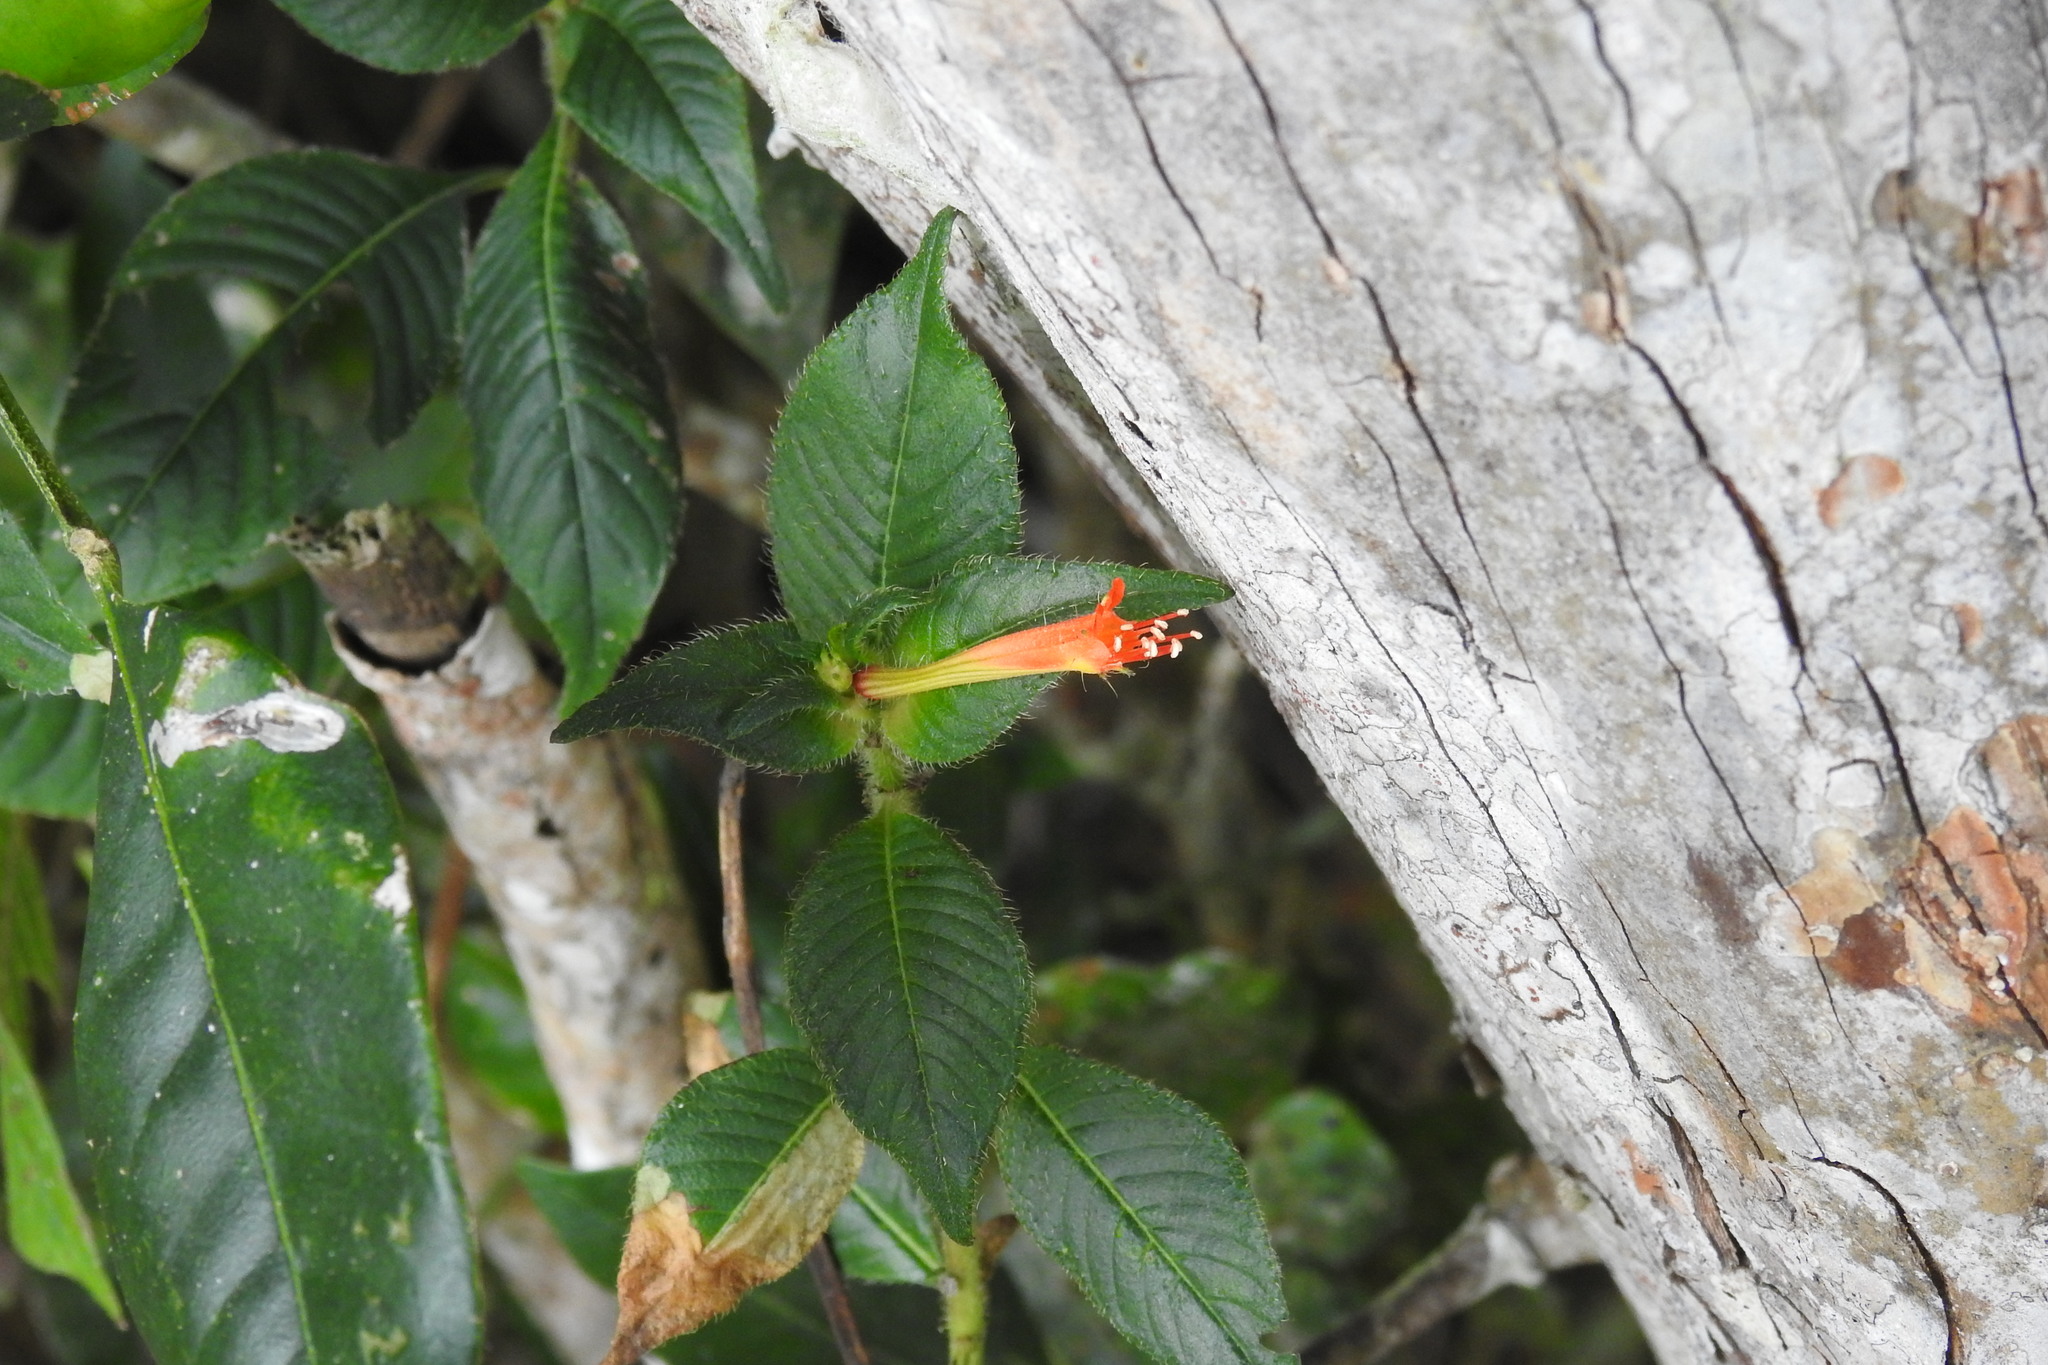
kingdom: Plantae
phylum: Tracheophyta
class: Magnoliopsida
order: Myrtales
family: Lythraceae
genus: Cuphea
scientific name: Cuphea appendiculata
